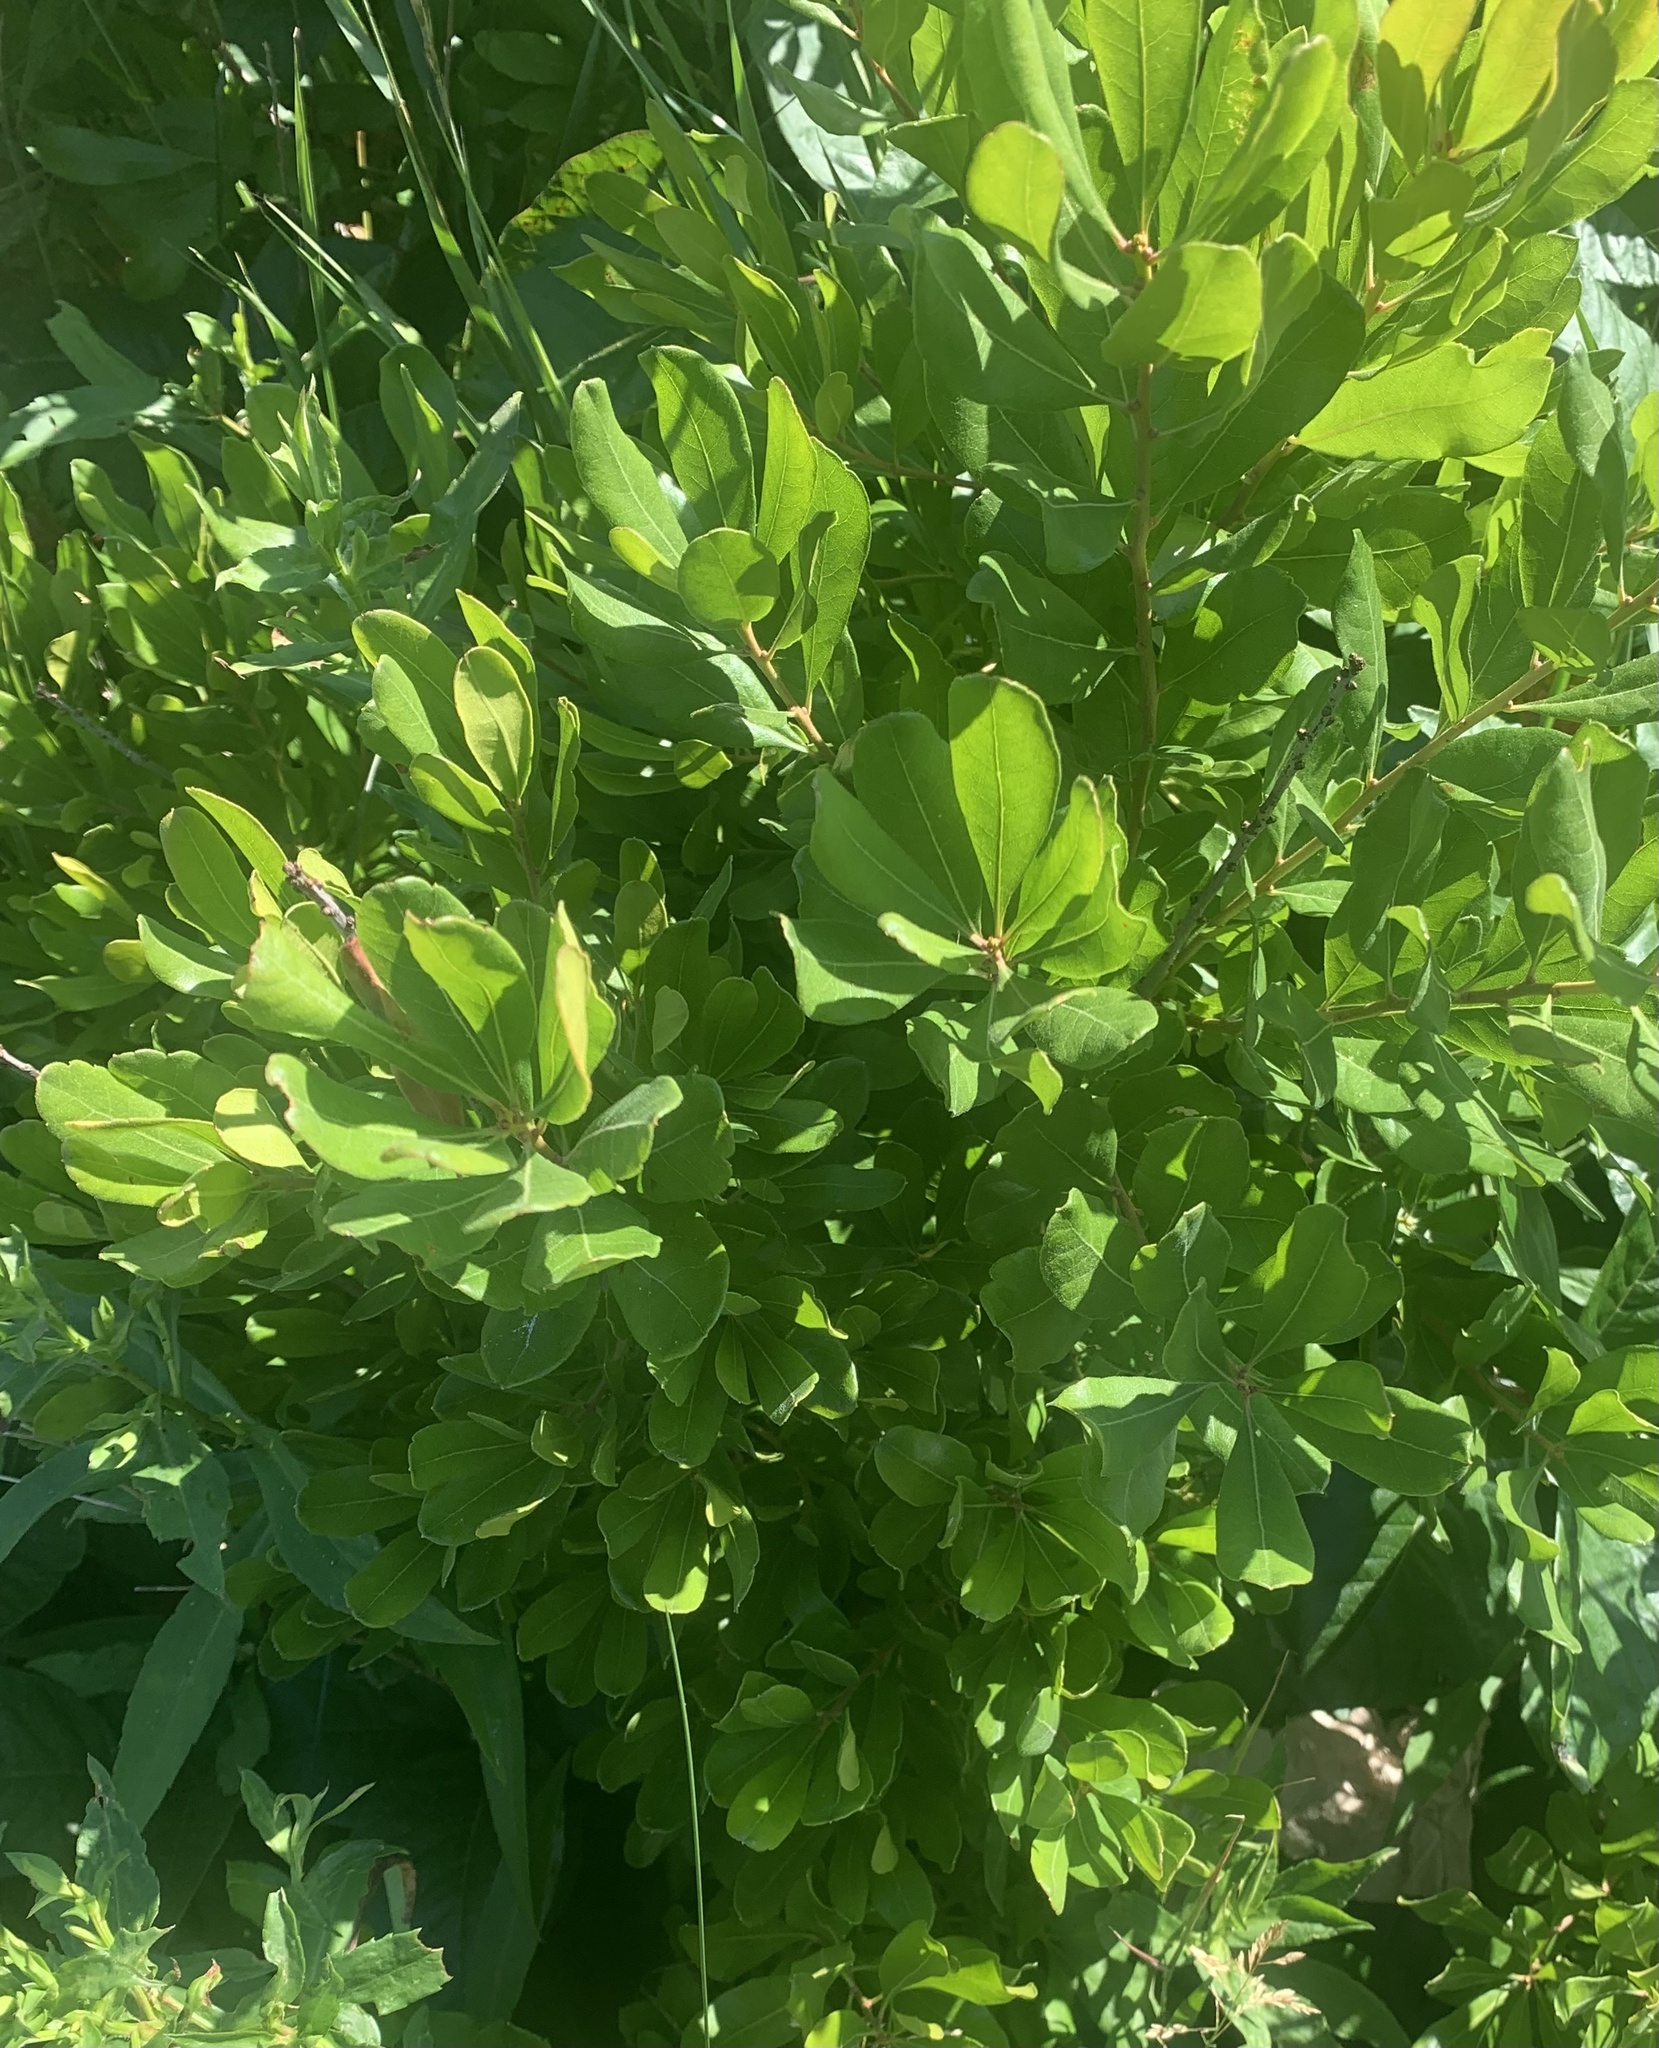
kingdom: Plantae
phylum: Tracheophyta
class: Magnoliopsida
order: Fagales
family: Myricaceae
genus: Morella
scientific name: Morella pensylvanica
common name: Northern bayberry
